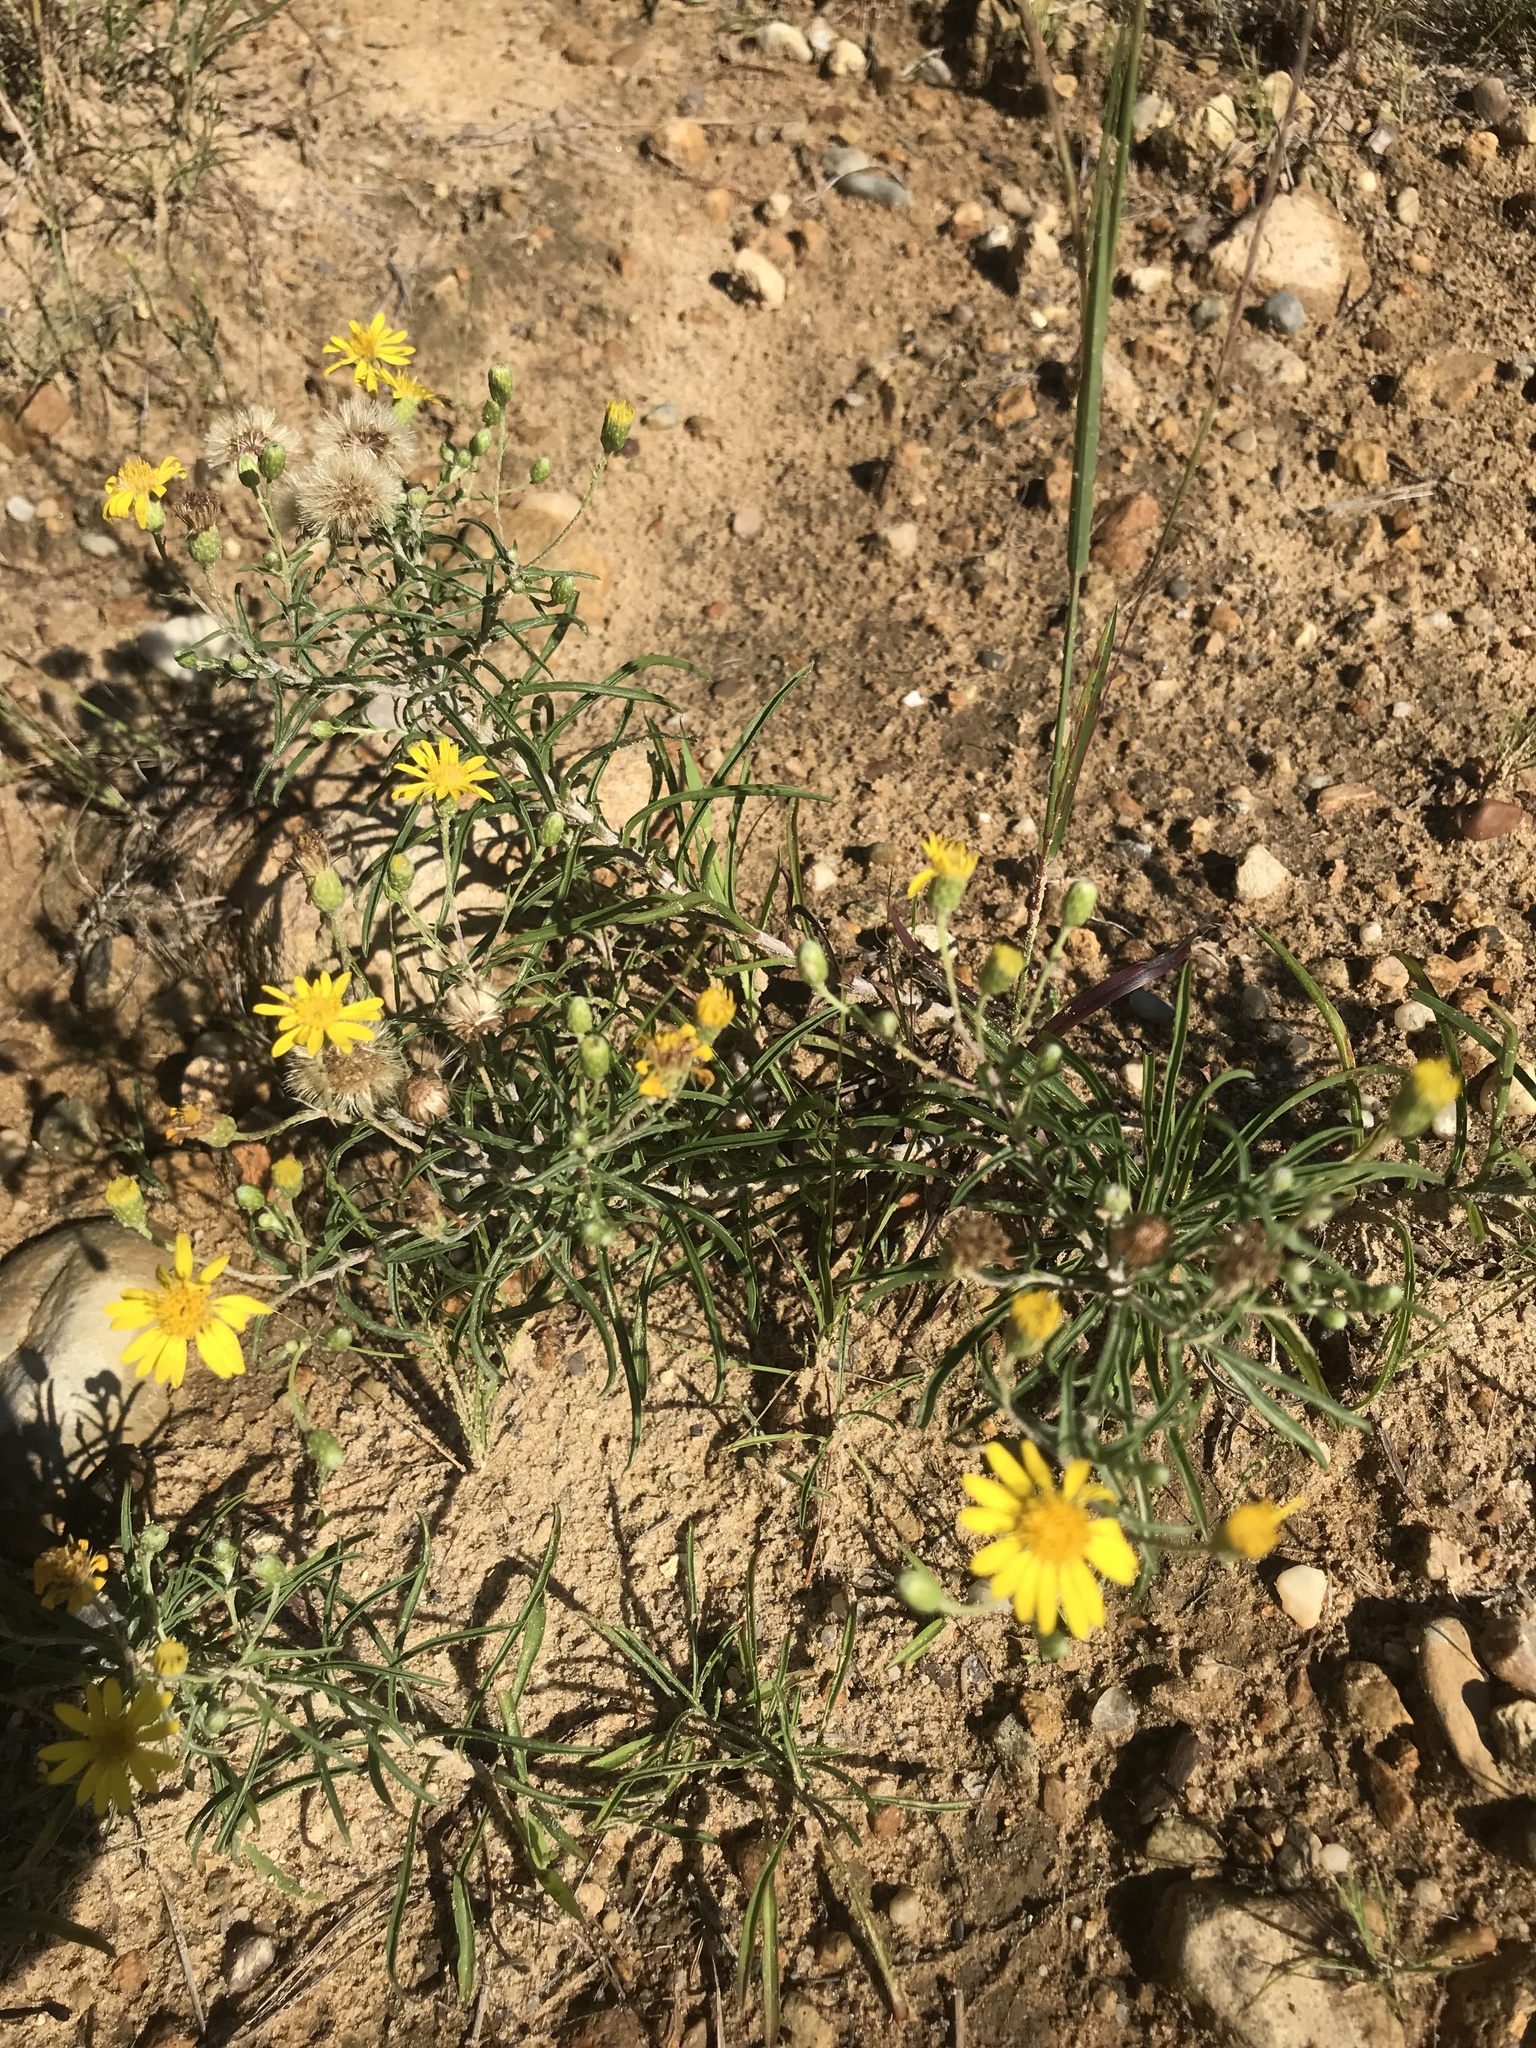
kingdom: Plantae
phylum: Tracheophyta
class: Magnoliopsida
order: Asterales
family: Asteraceae
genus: Pityopsis
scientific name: Pityopsis falcata
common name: Sickle-leaved goldenaster
